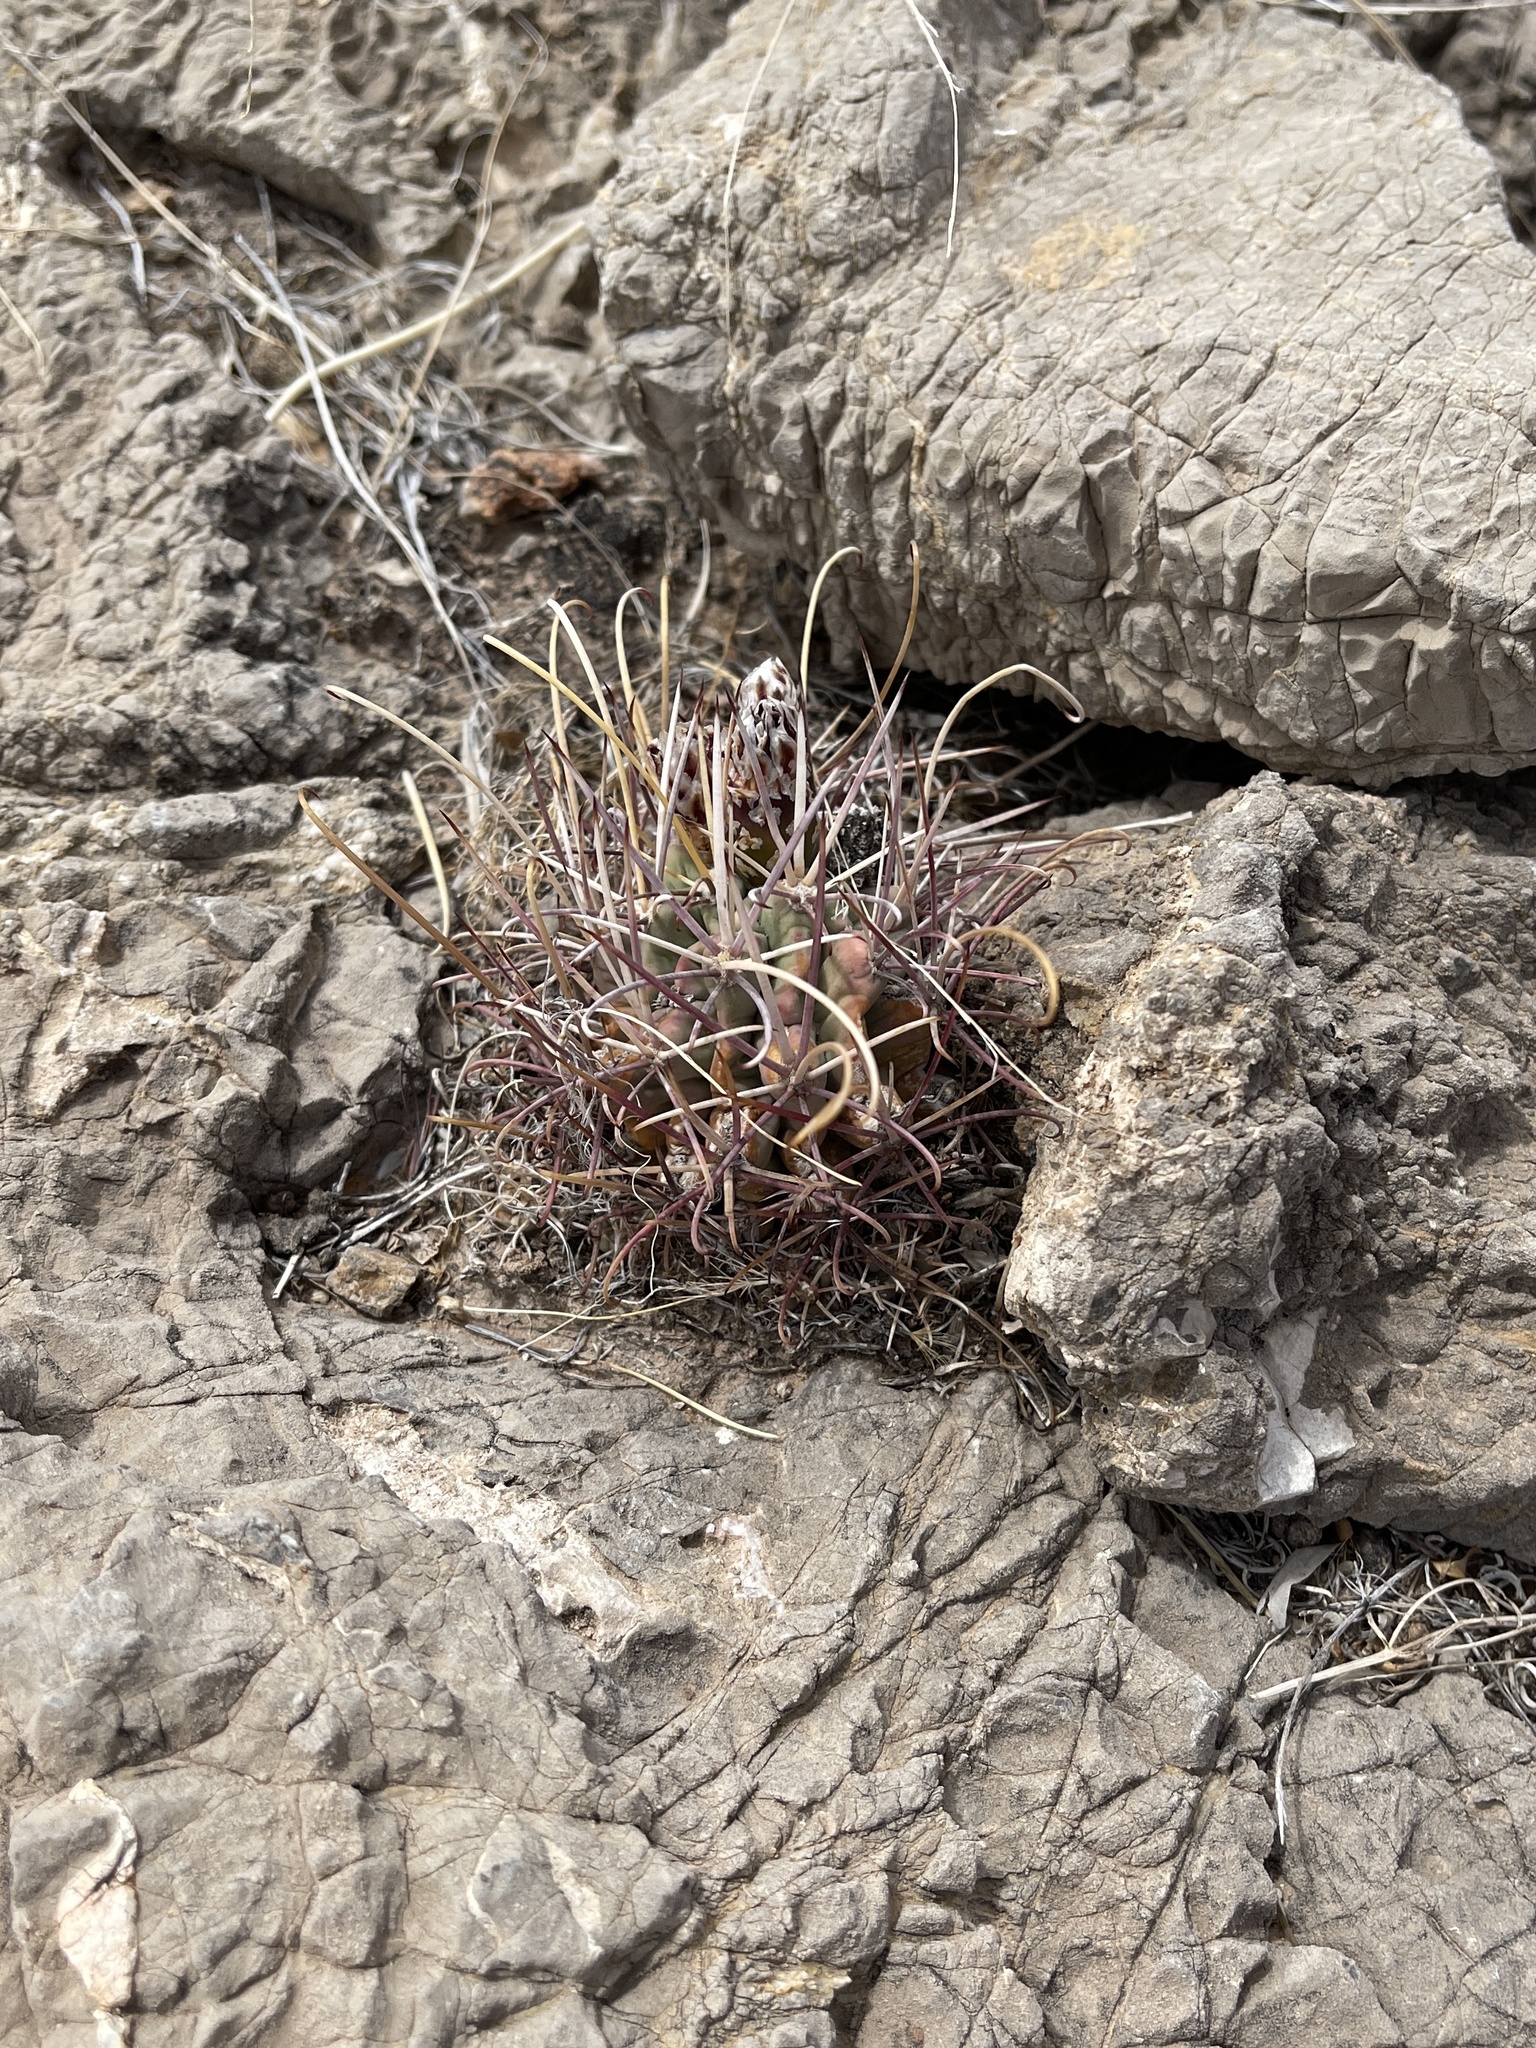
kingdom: Plantae
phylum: Tracheophyta
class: Magnoliopsida
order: Caryophyllales
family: Cactaceae
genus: Ferocactus
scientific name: Ferocactus uncinatus
